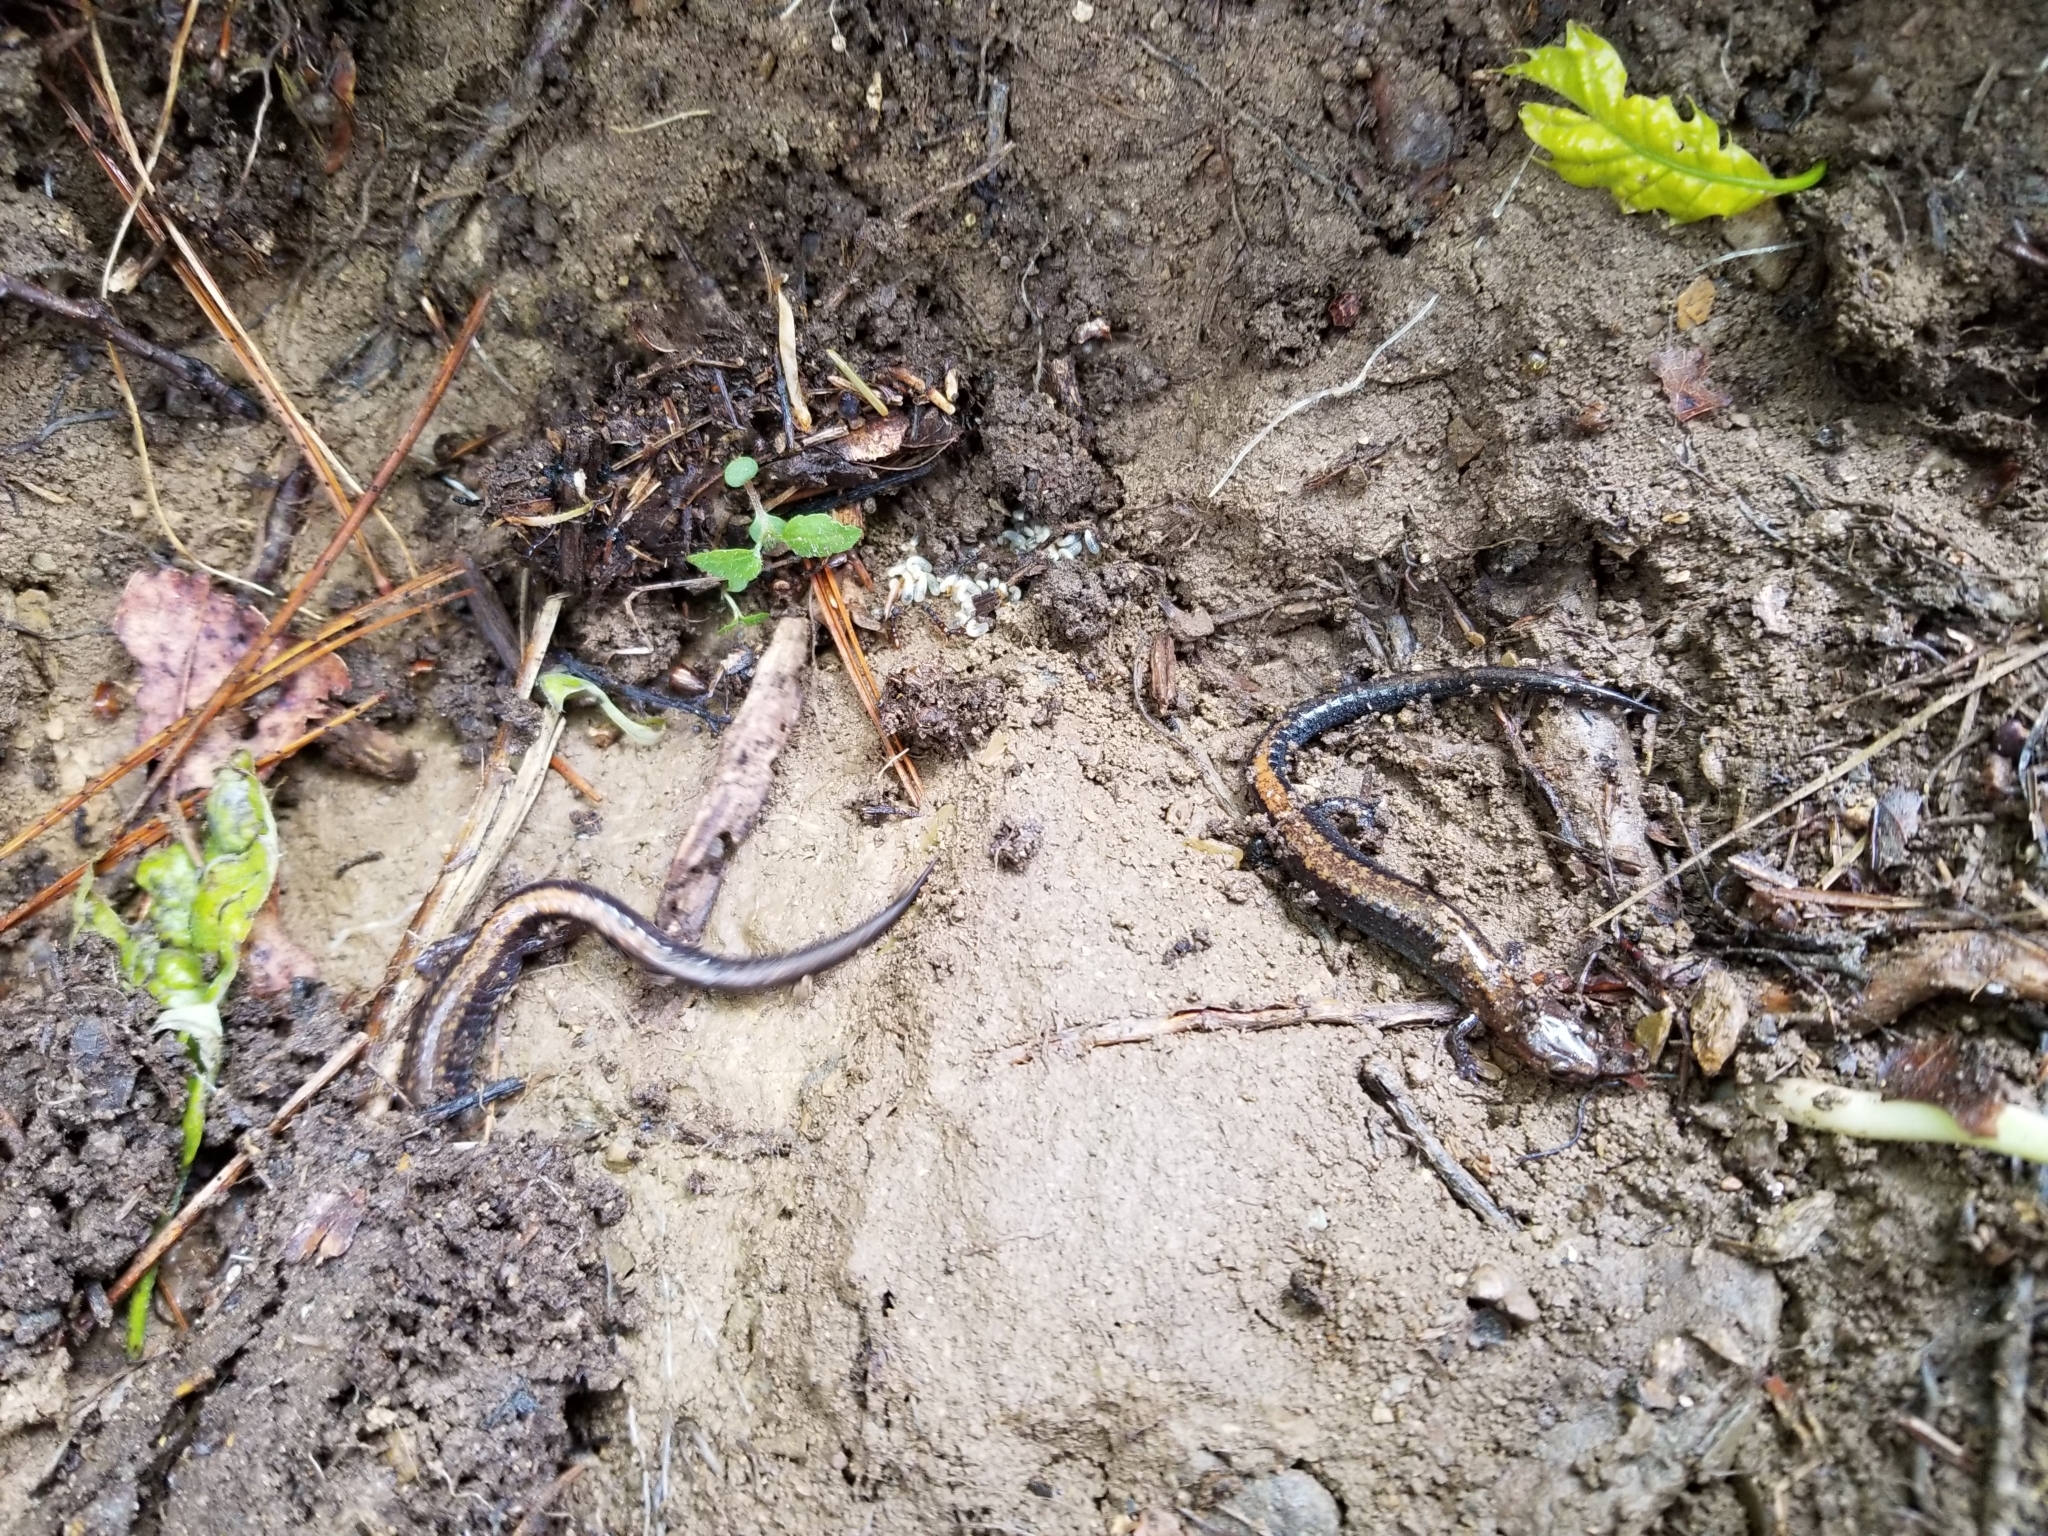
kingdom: Animalia
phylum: Chordata
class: Amphibia
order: Caudata
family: Plethodontidae
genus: Plethodon
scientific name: Plethodon cinereus
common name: Redback salamander
